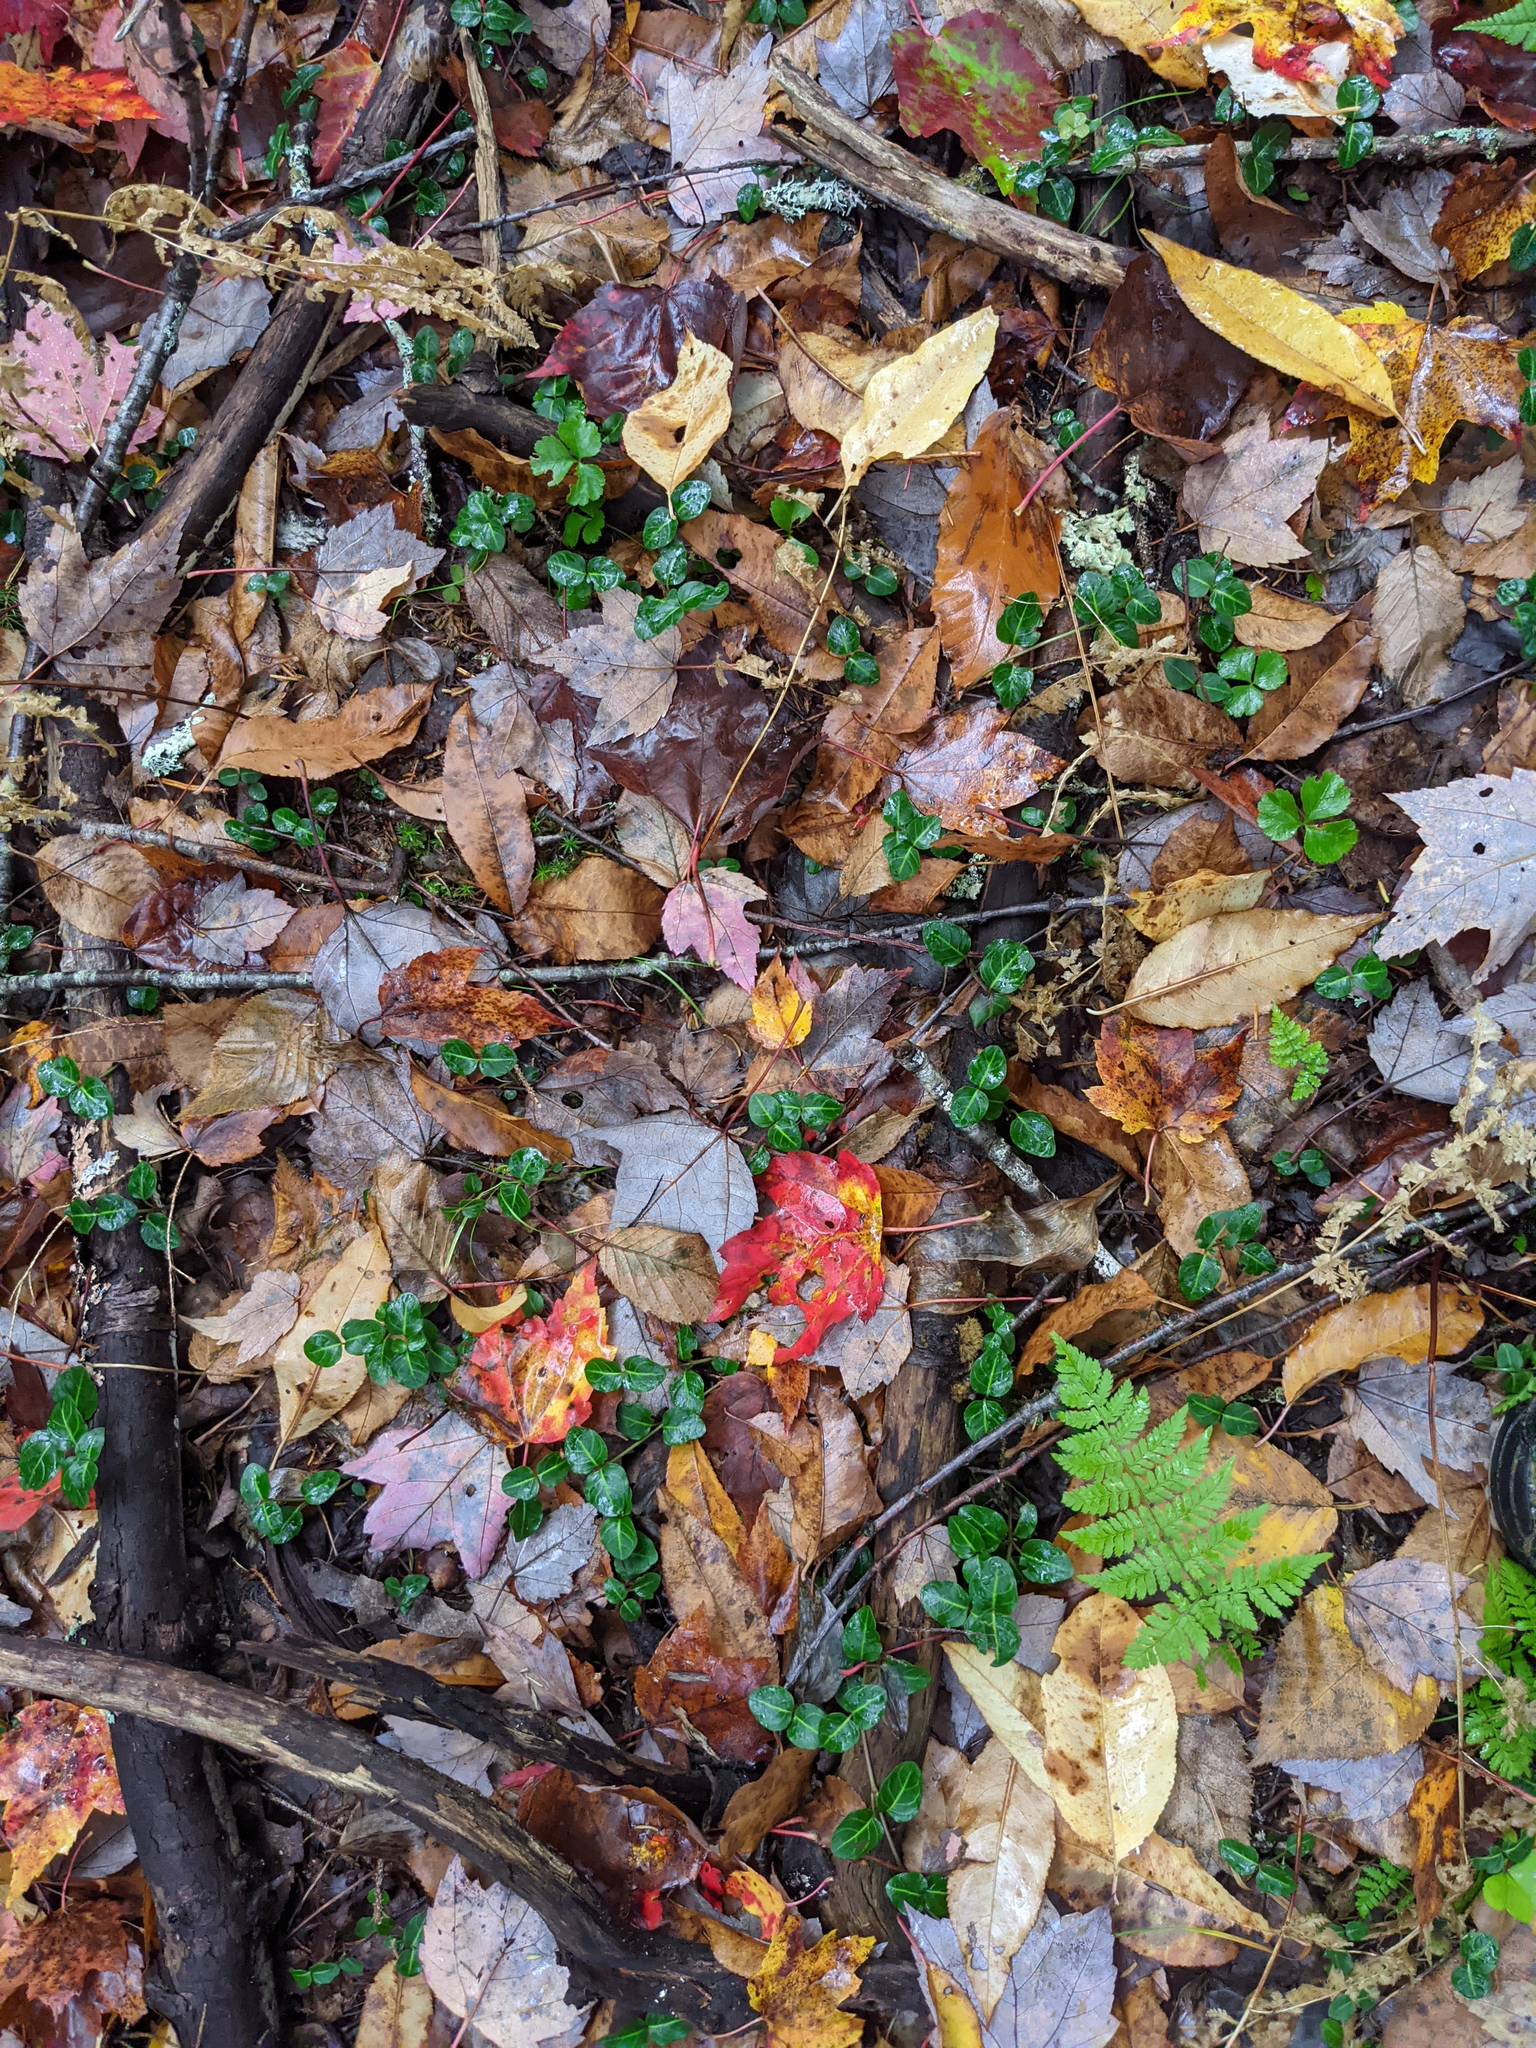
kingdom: Plantae
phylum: Tracheophyta
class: Magnoliopsida
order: Gentianales
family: Rubiaceae
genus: Mitchella
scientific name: Mitchella repens
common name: Partridge-berry
